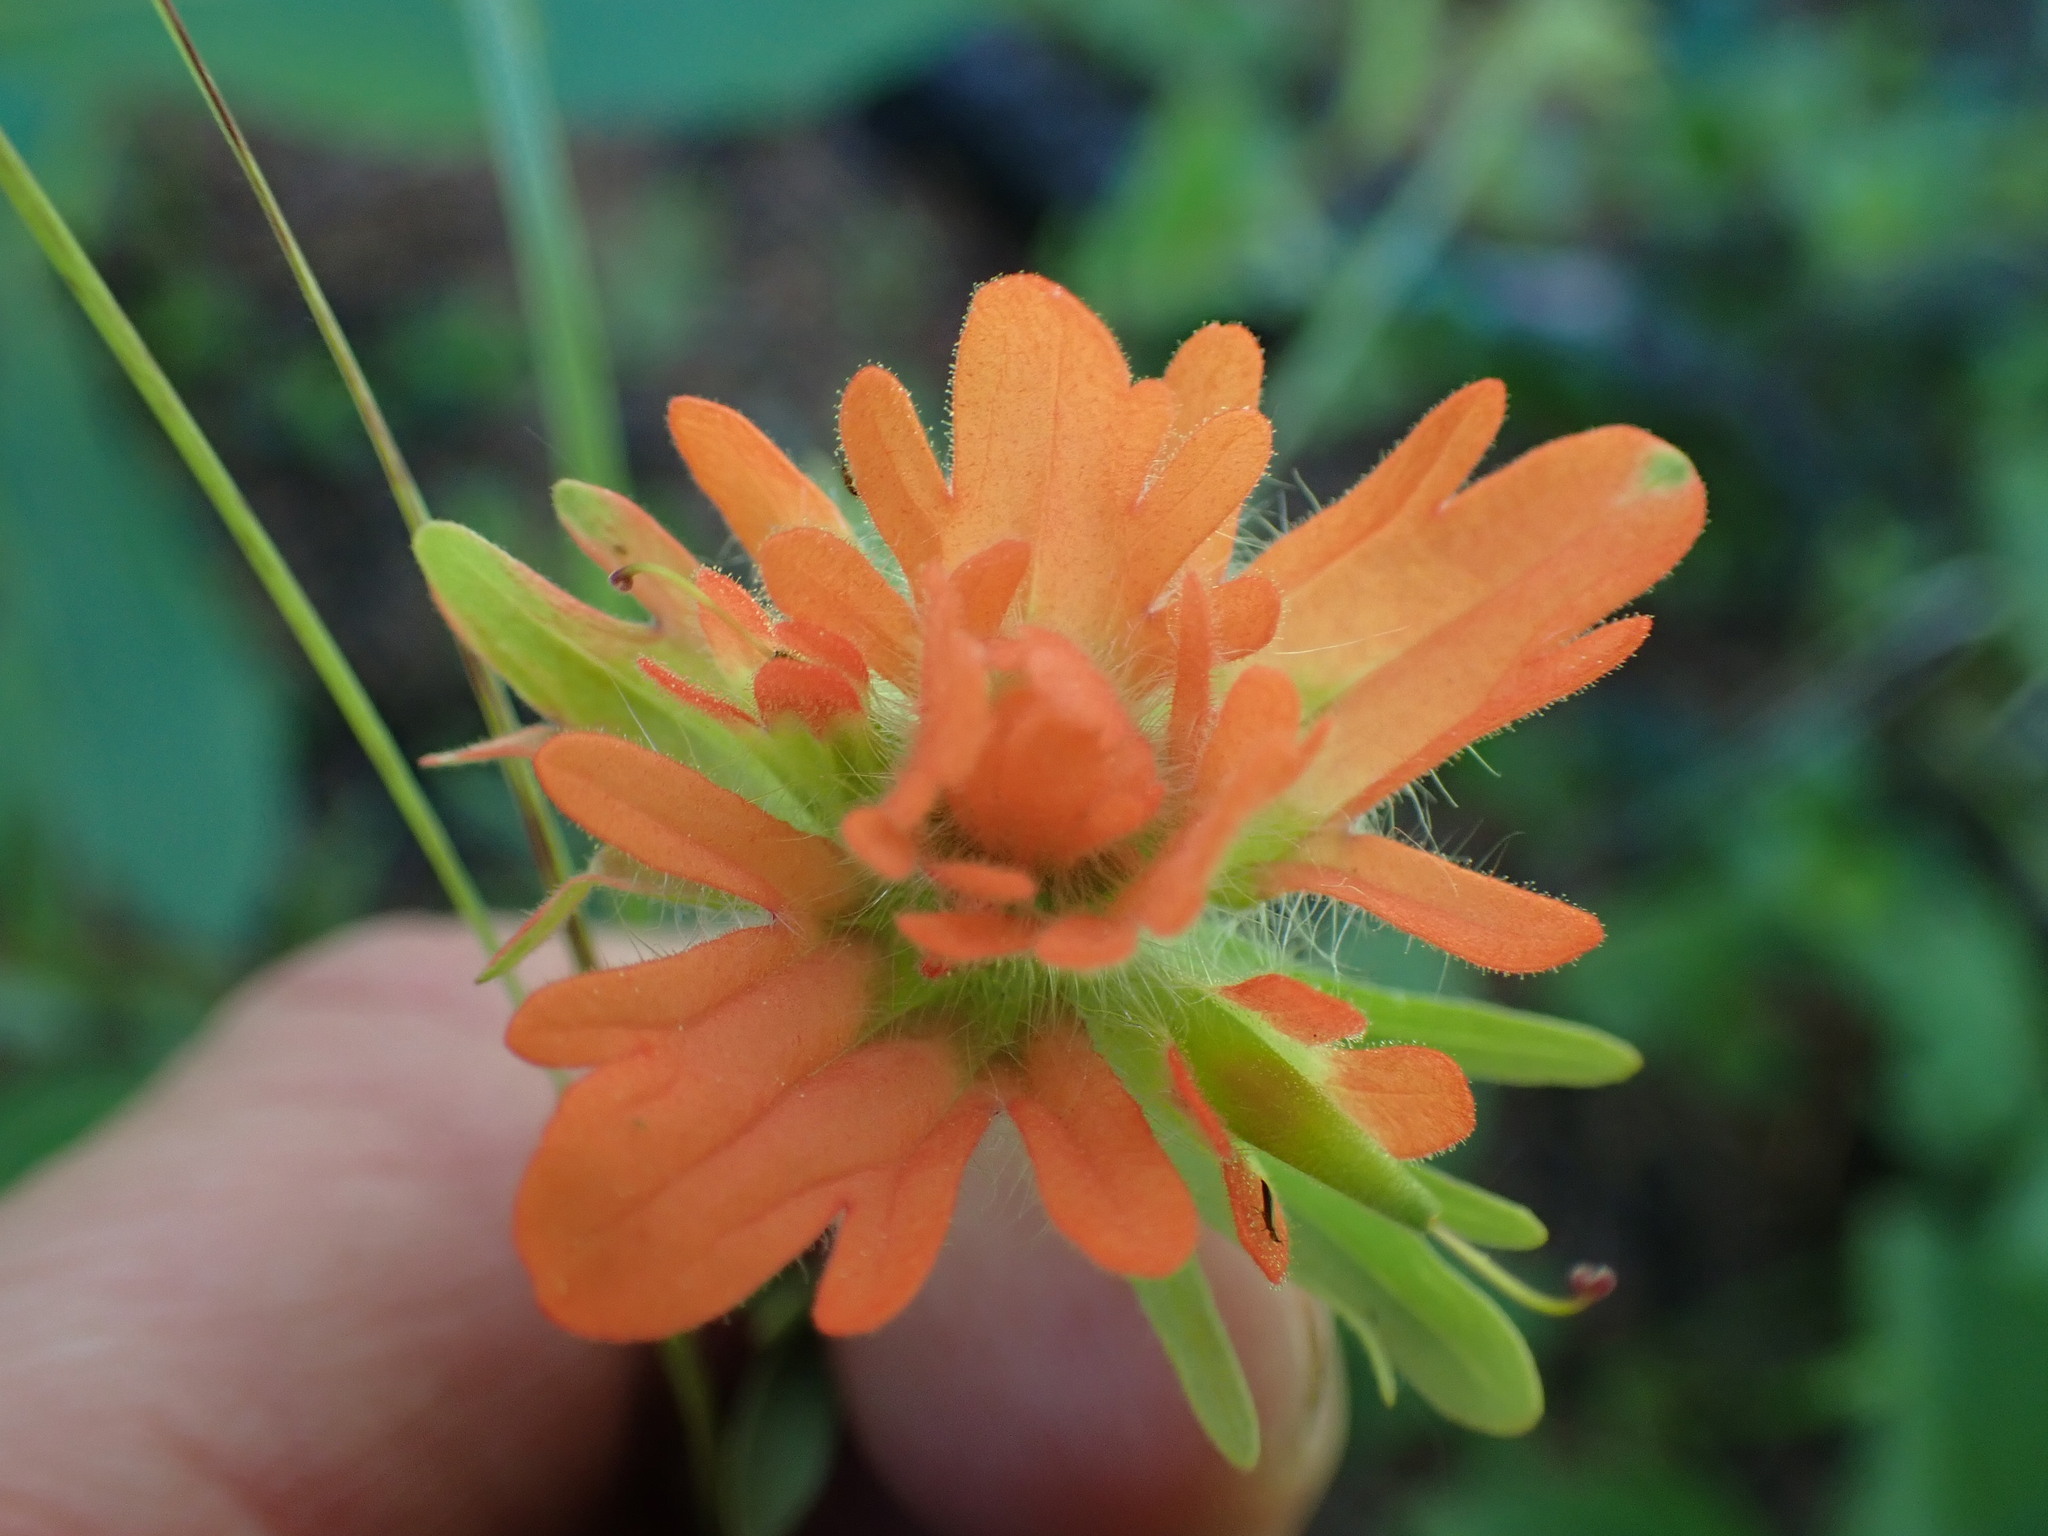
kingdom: Plantae
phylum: Tracheophyta
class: Magnoliopsida
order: Lamiales
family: Orobanchaceae
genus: Castilleja
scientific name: Castilleja hispida
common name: Bristly paintbrush
